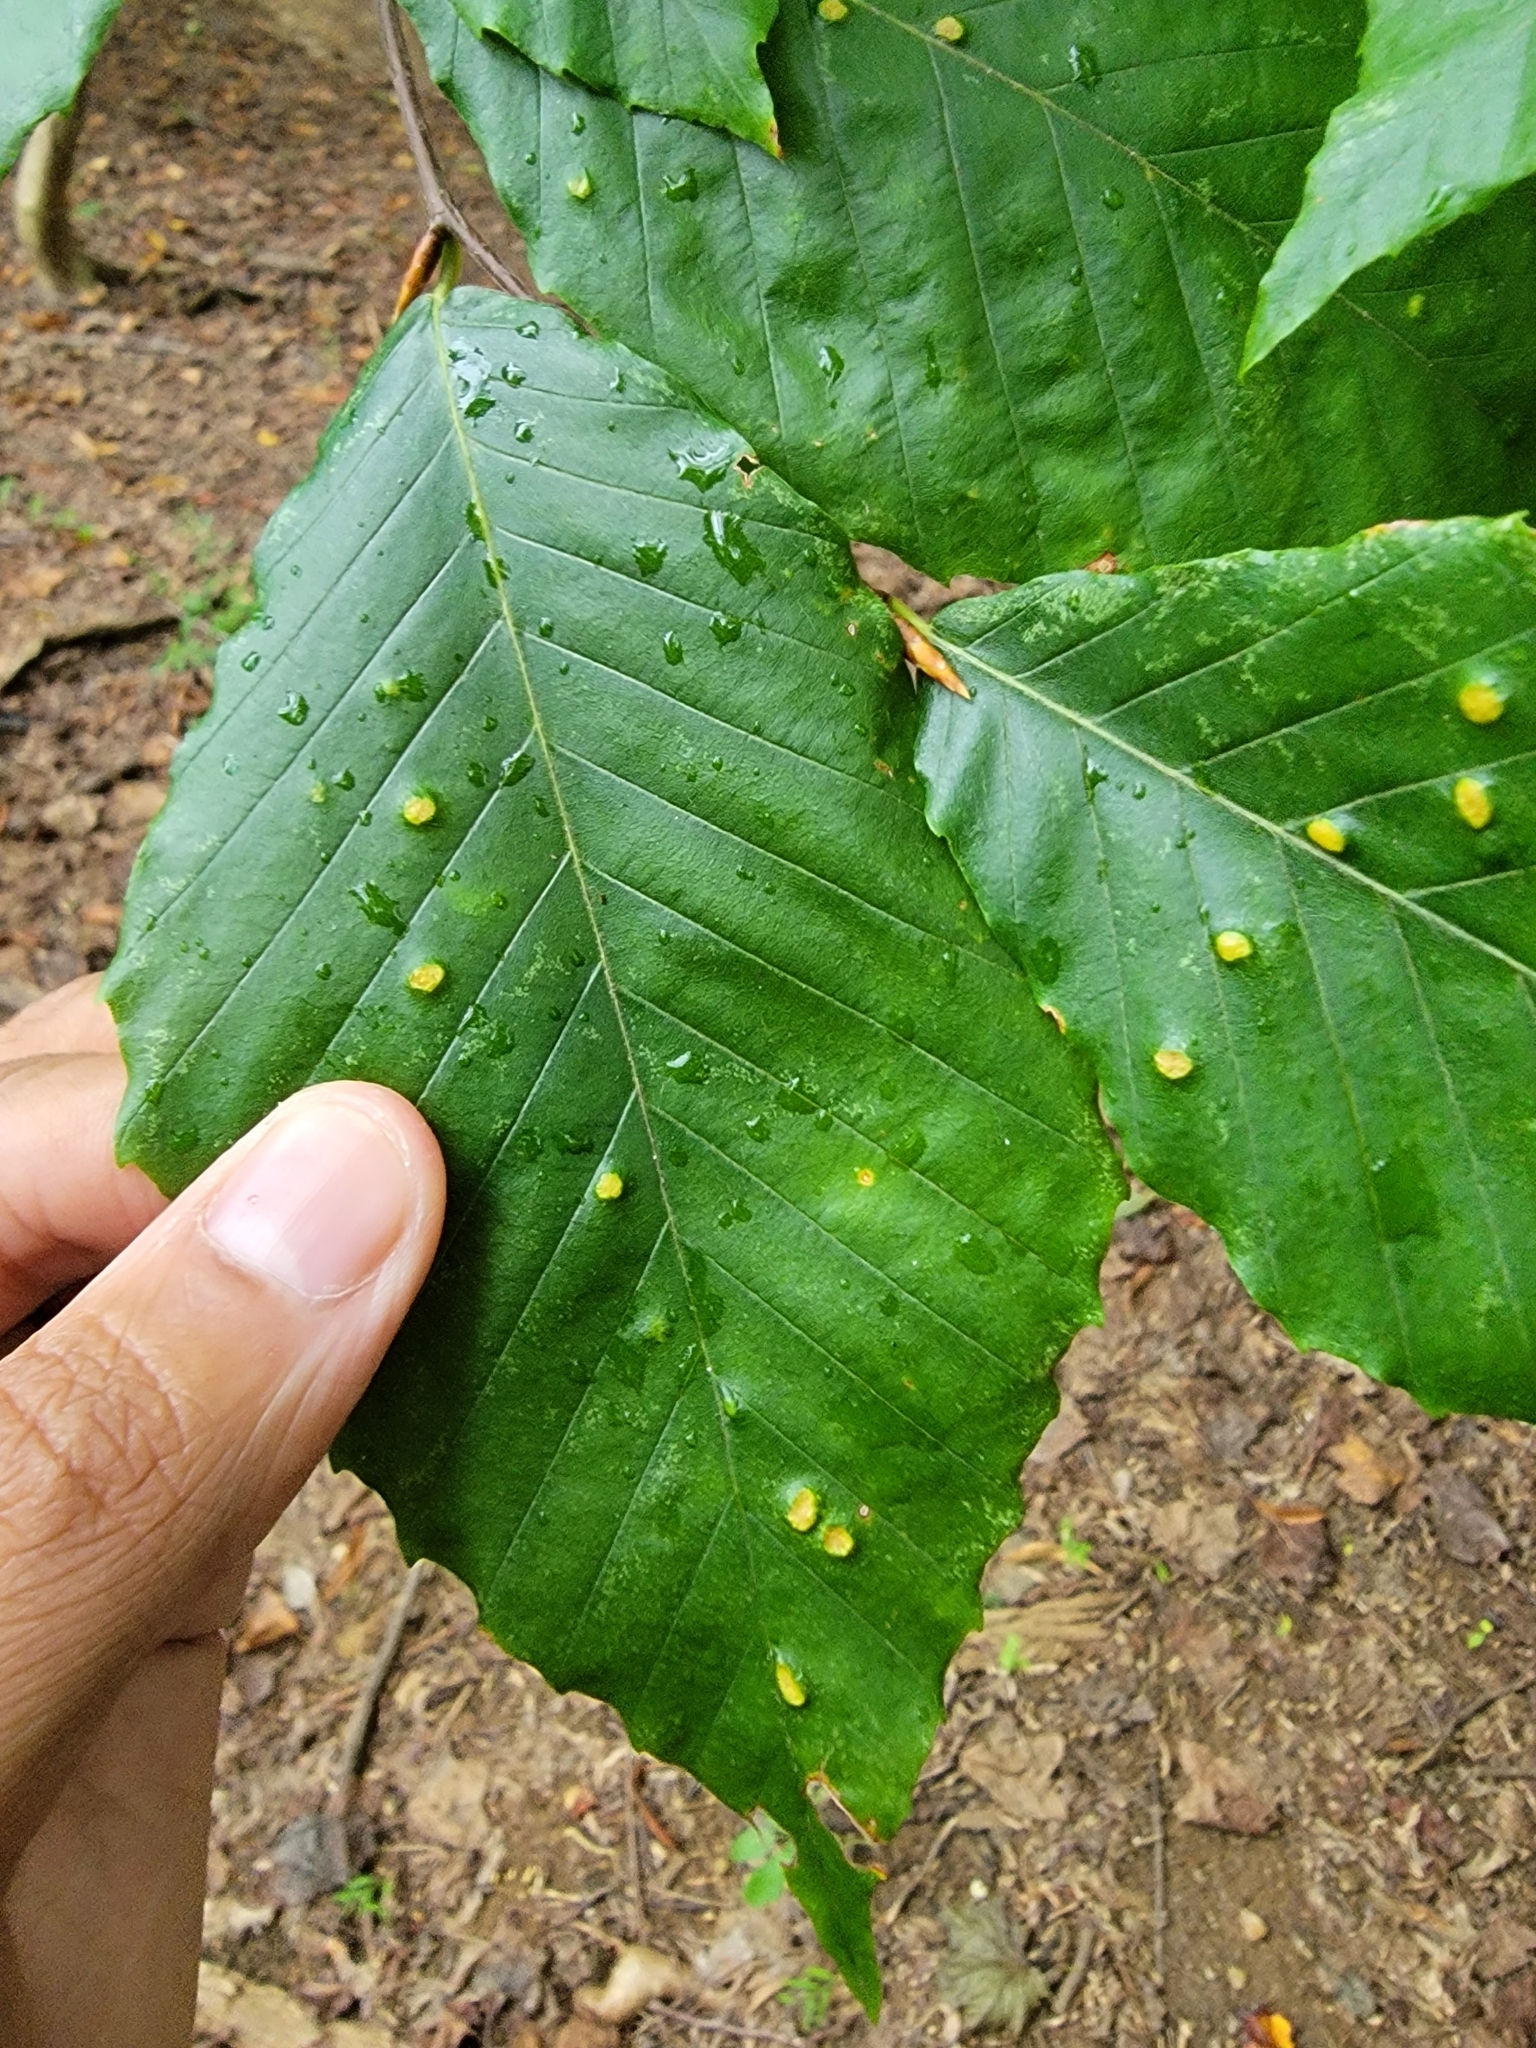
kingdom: Animalia
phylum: Arthropoda
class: Arachnida
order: Trombidiformes
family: Eriophyidae
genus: Acalitus
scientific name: Acalitus
